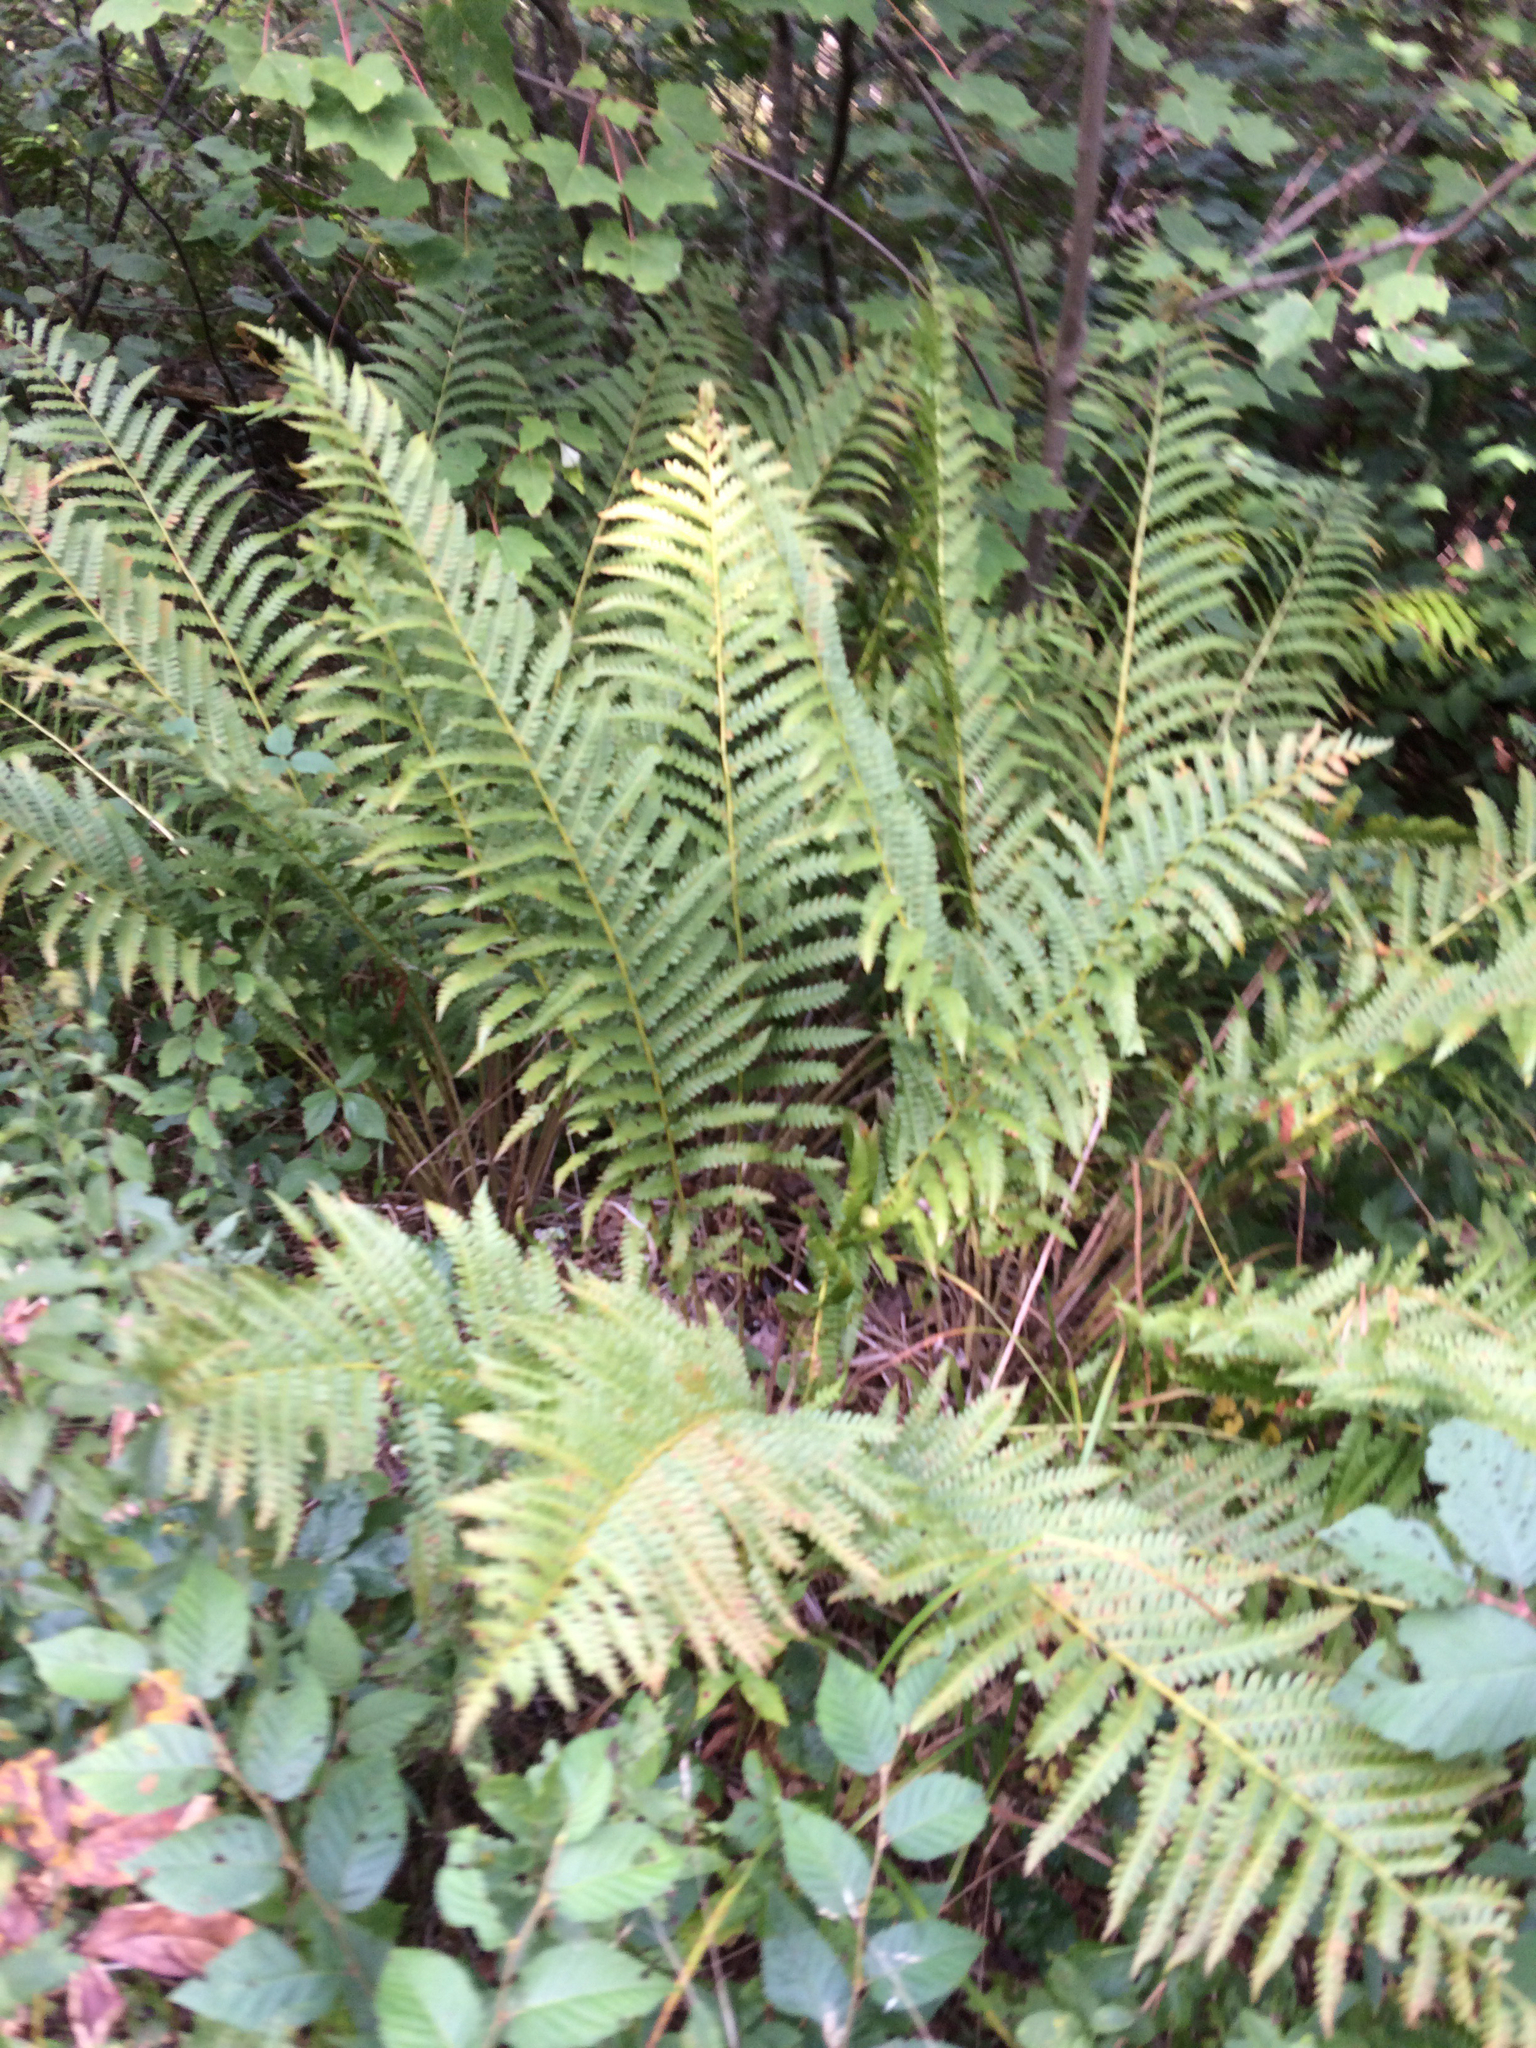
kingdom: Plantae
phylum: Tracheophyta
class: Polypodiopsida
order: Osmundales
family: Osmundaceae
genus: Osmundastrum
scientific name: Osmundastrum cinnamomeum
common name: Cinnamon fern
